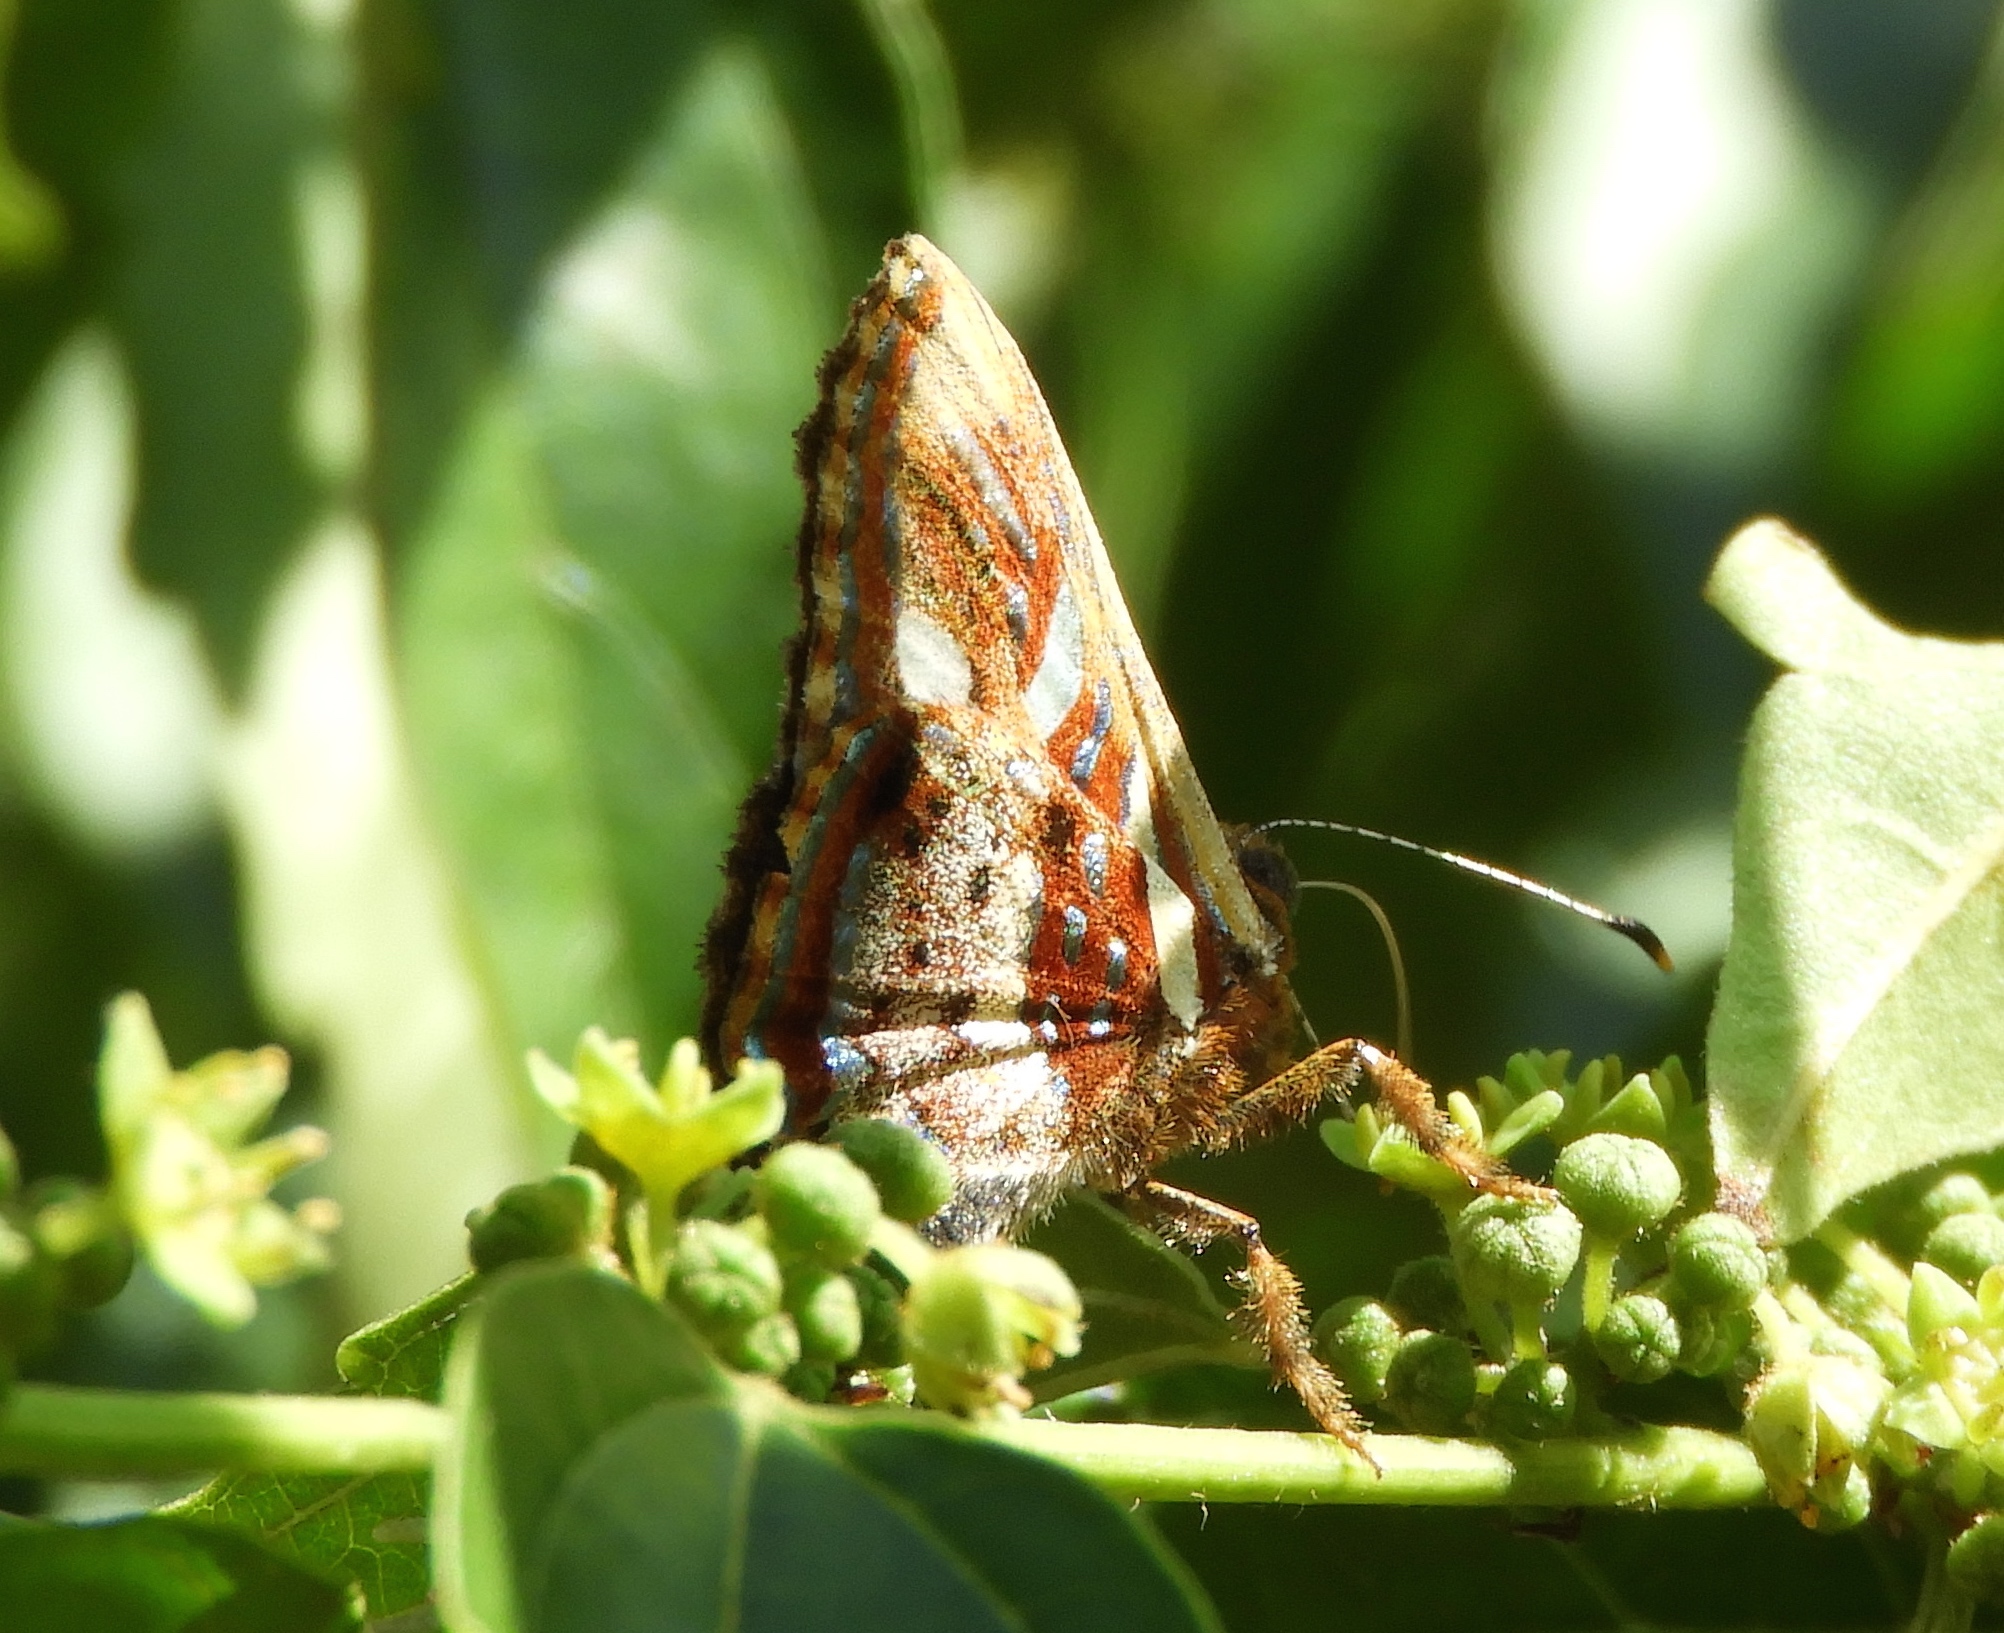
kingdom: Animalia
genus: Anteros
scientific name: Anteros carausius
